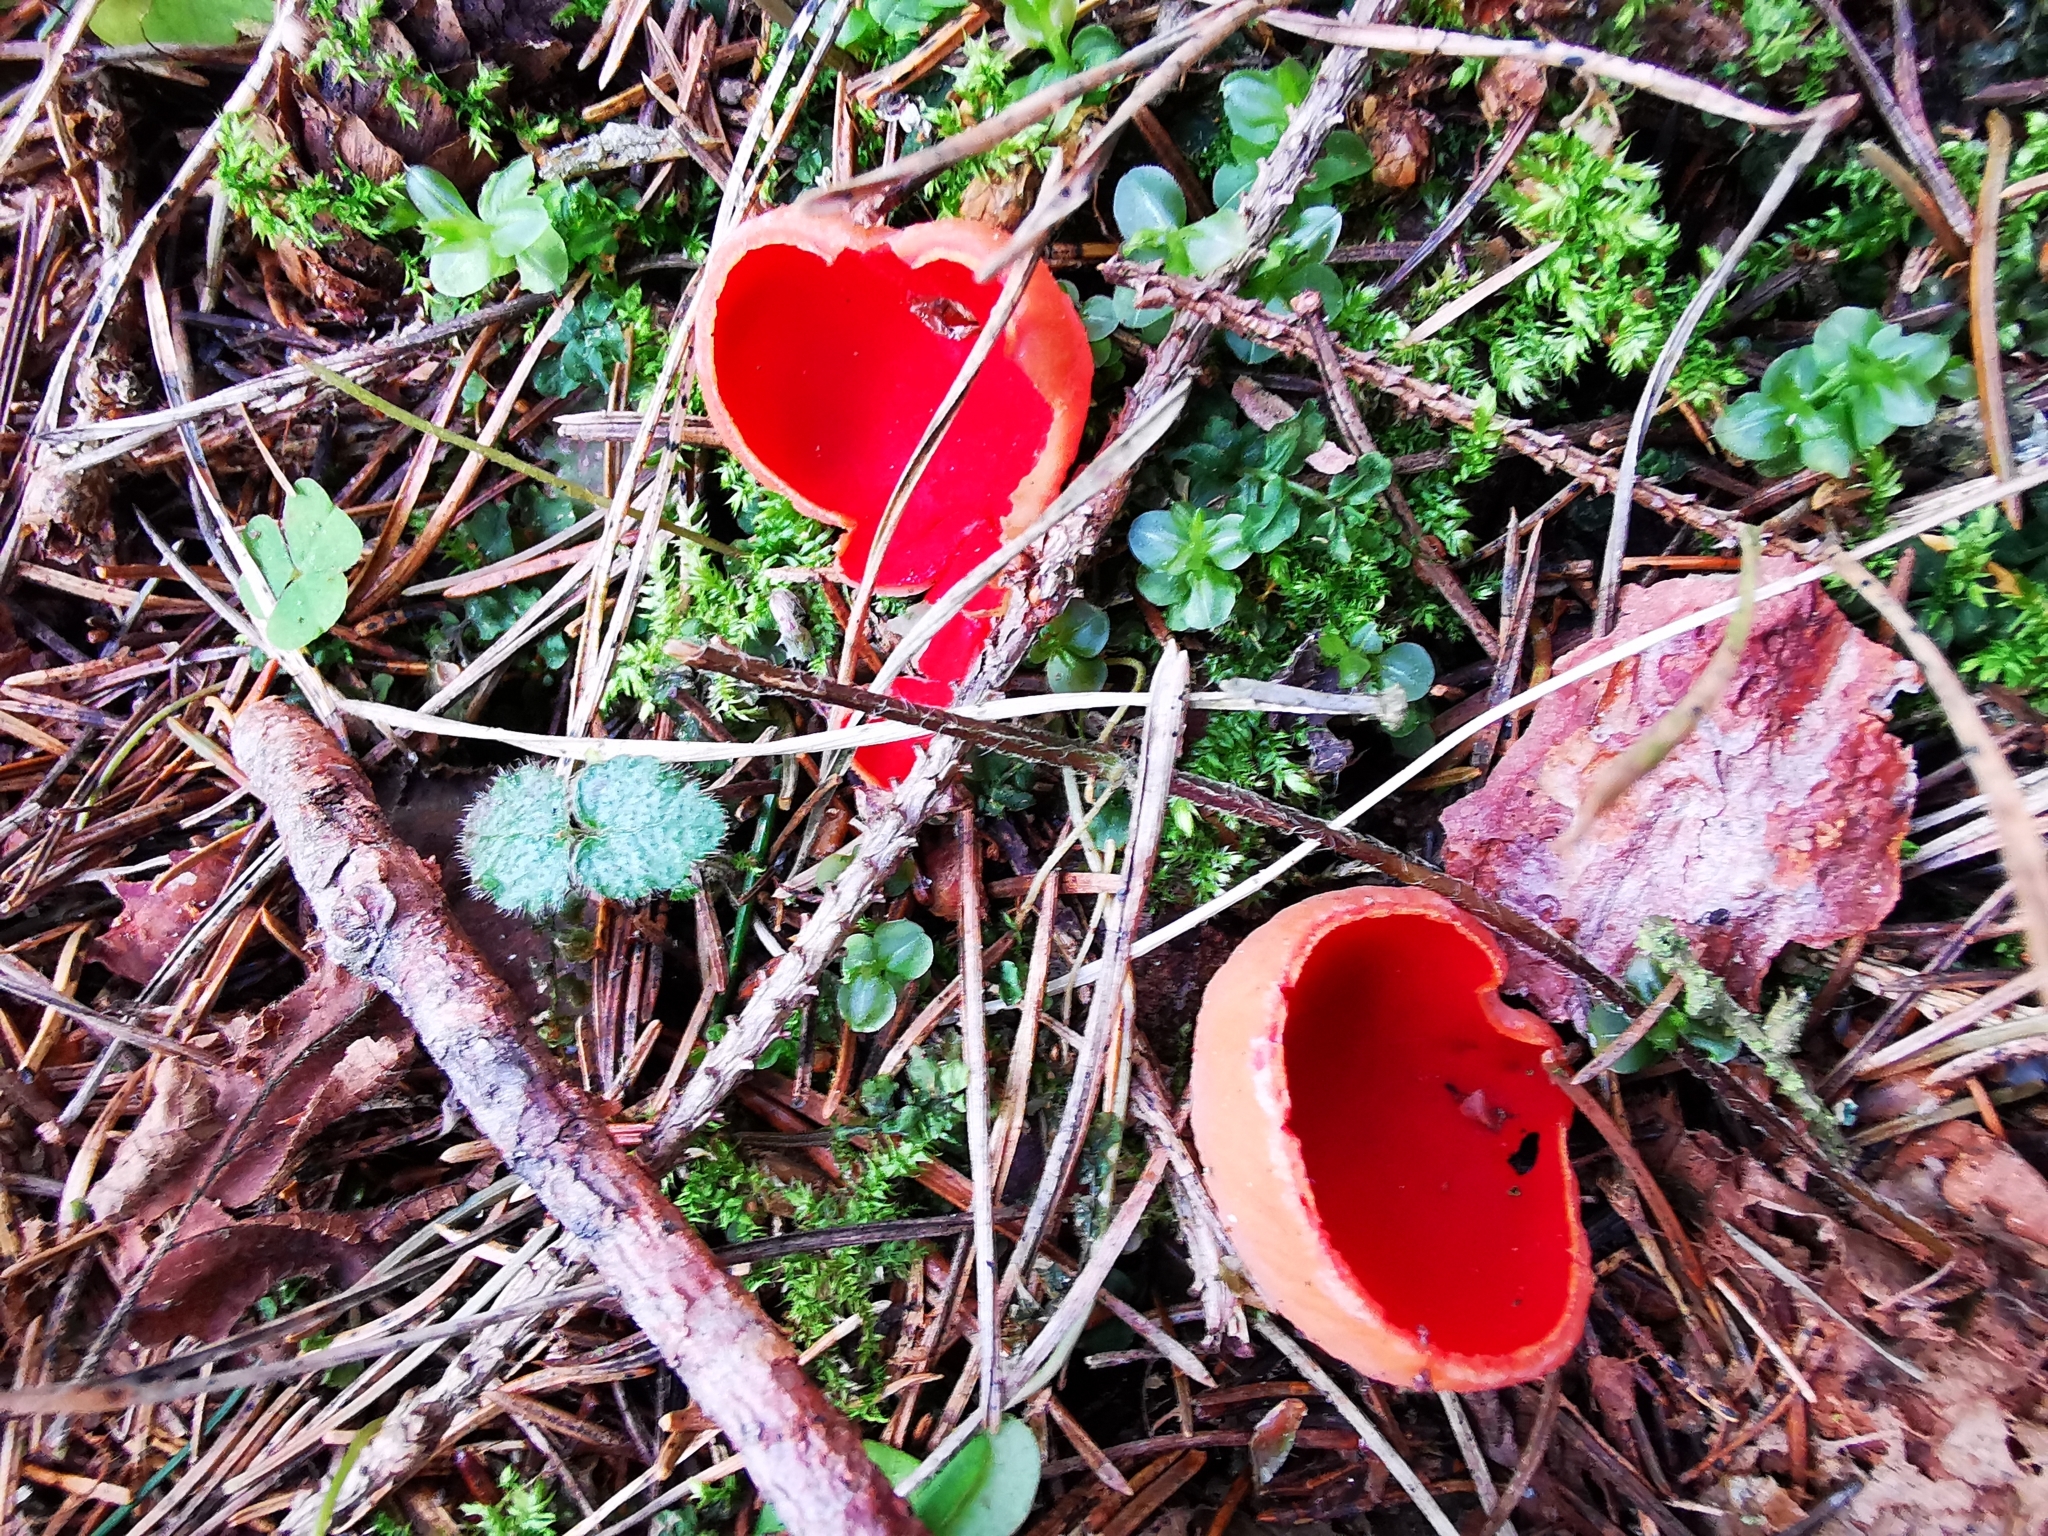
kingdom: Fungi
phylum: Ascomycota
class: Pezizomycetes
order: Pezizales
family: Sarcoscyphaceae
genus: Sarcoscypha
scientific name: Sarcoscypha
